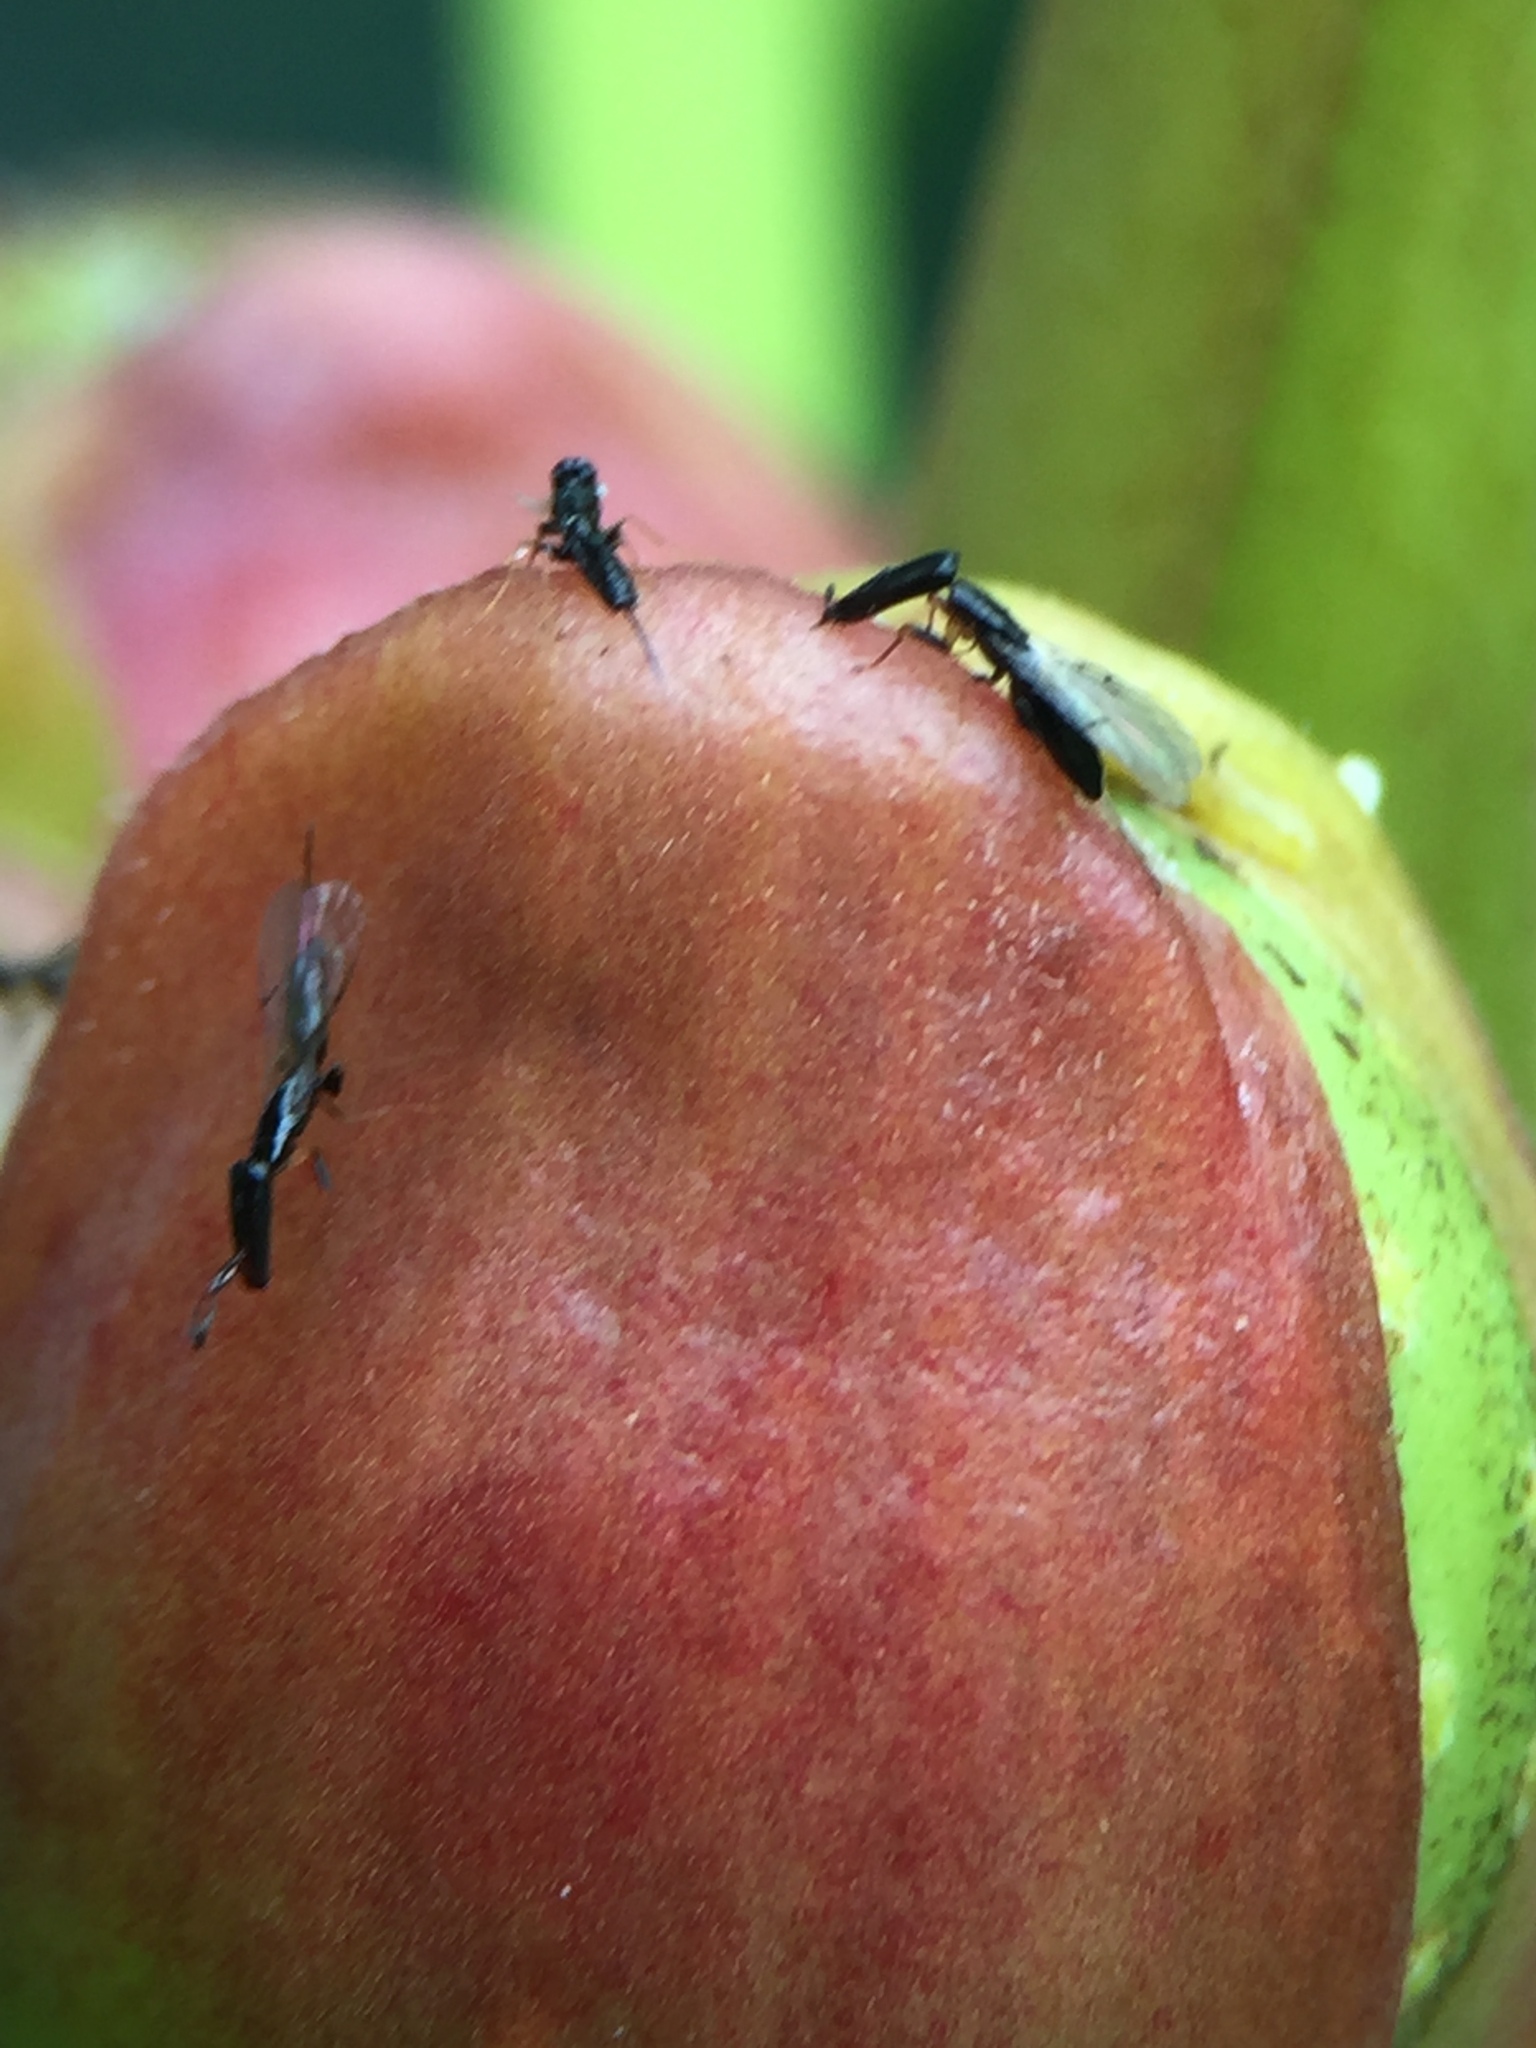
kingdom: Animalia
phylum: Arthropoda
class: Insecta
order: Hymenoptera
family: Agaonidae
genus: Pleistodontes
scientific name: Pleistodontes froggatti
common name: Fig wasp
